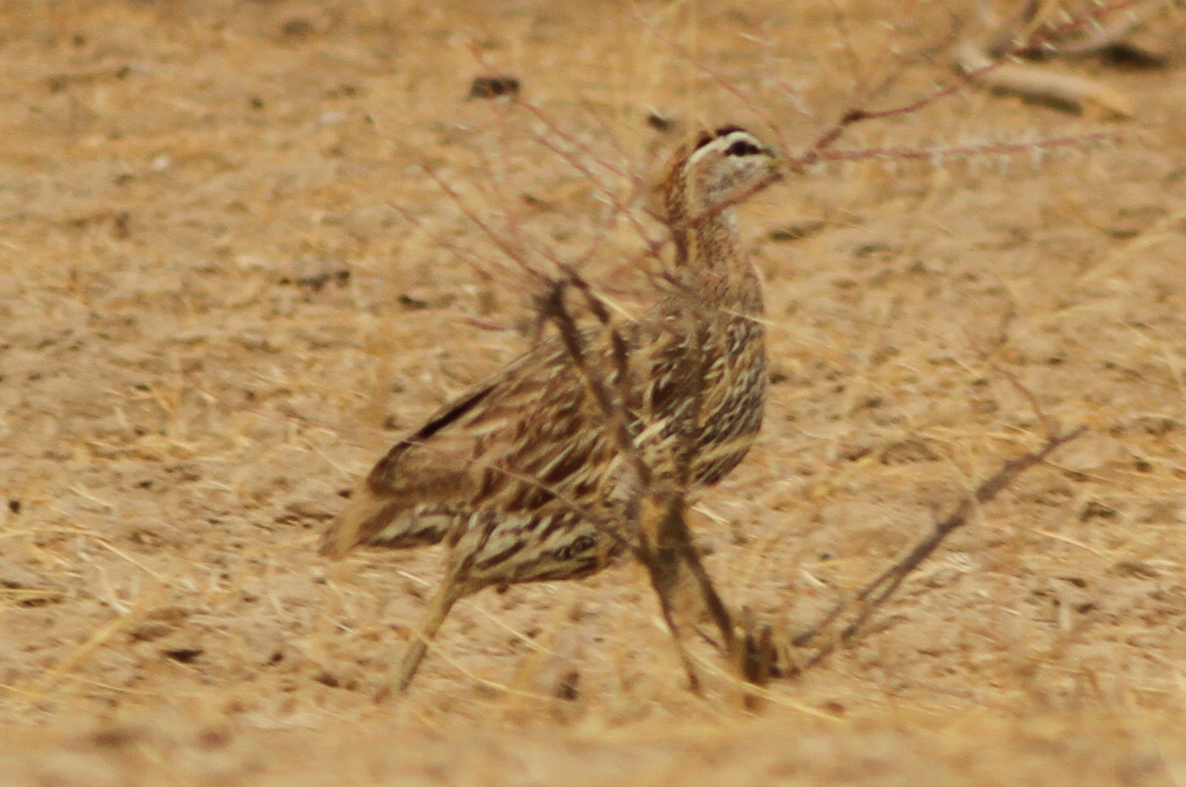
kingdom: Animalia
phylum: Chordata
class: Aves
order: Galliformes
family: Phasianidae
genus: Pternistis
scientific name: Pternistis bicalcaratus
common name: Double-spurred francolin
